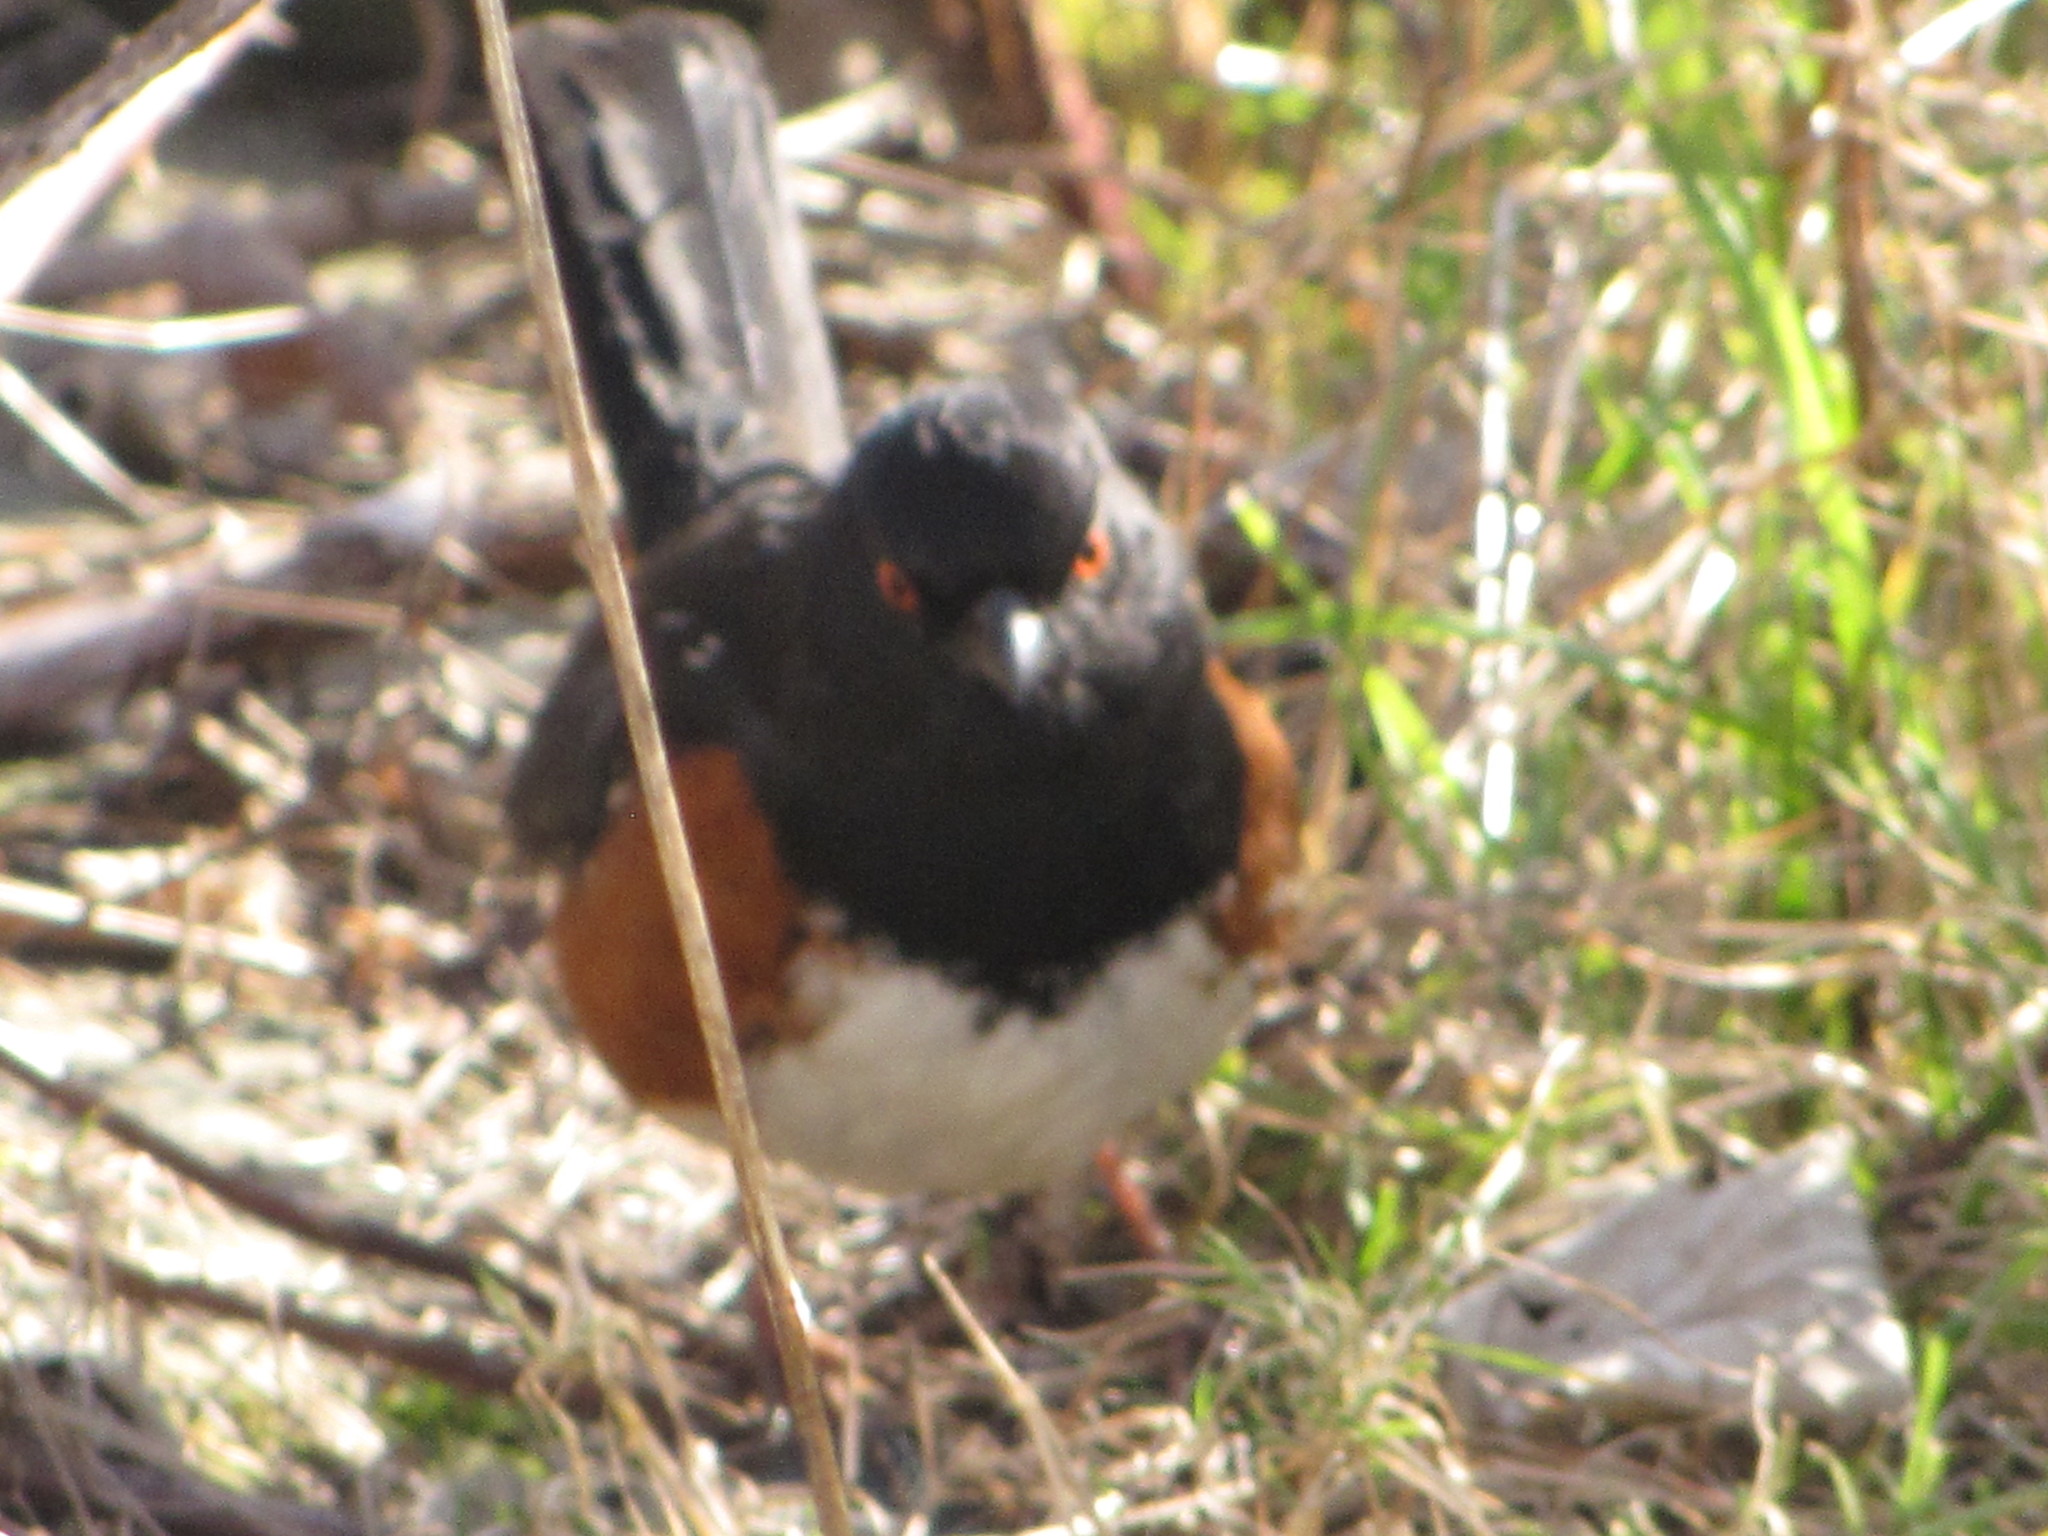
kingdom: Animalia
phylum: Chordata
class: Aves
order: Passeriformes
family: Passerellidae
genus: Pipilo
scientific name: Pipilo maculatus
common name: Spotted towhee
